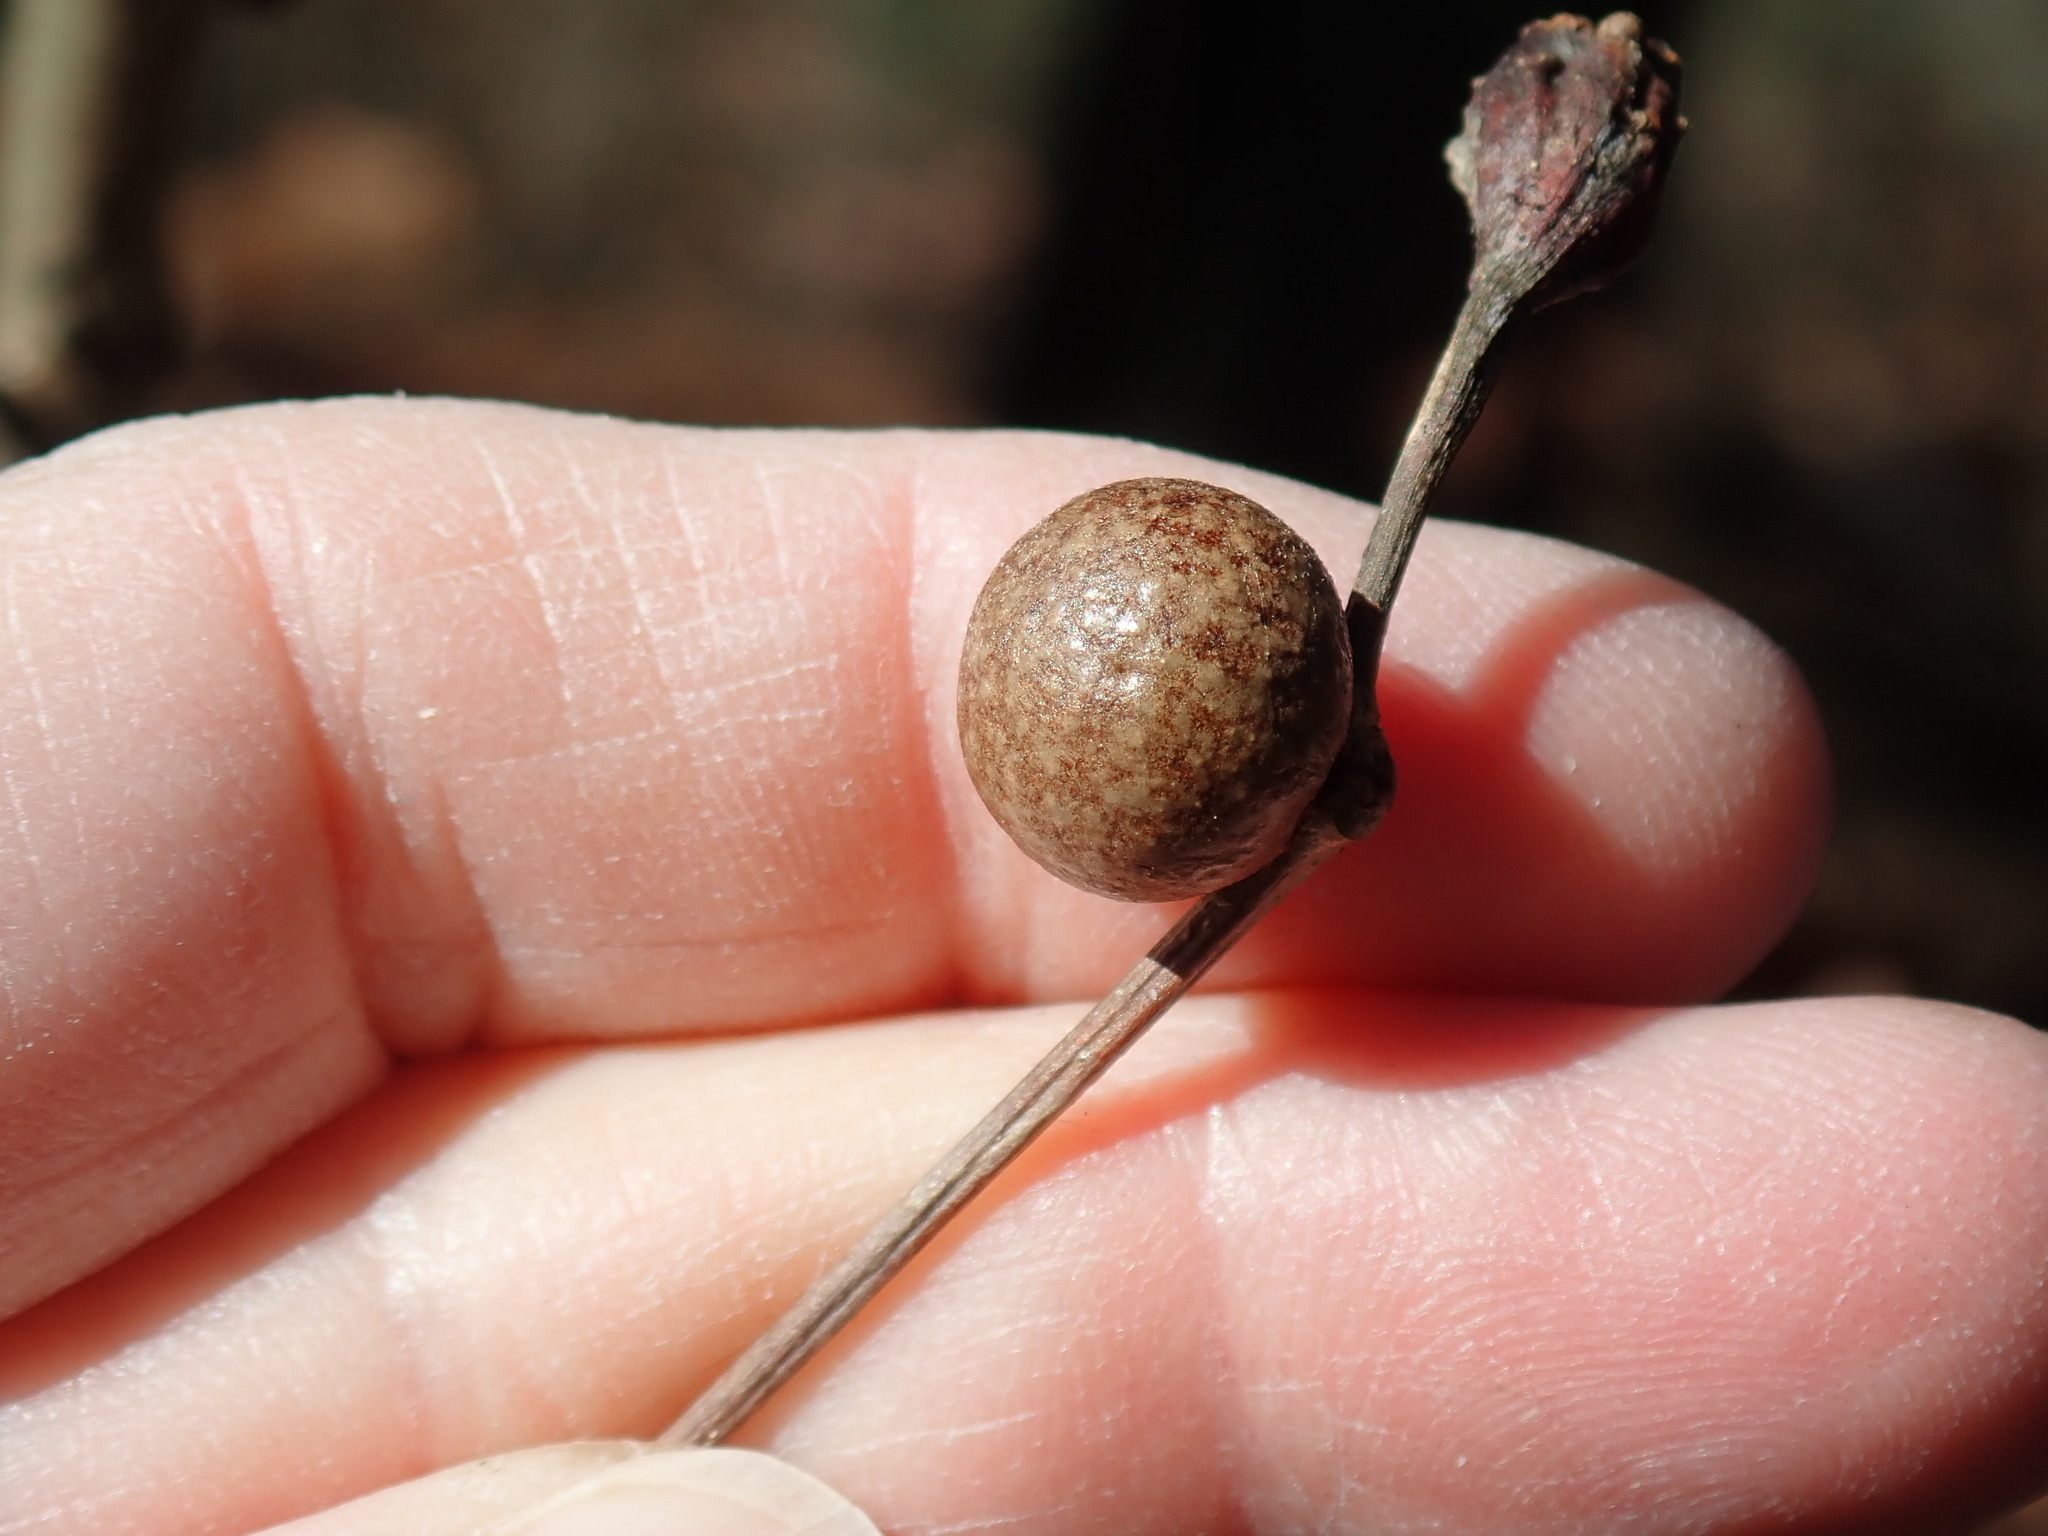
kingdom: Animalia
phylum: Arthropoda
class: Insecta
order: Hymenoptera
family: Cynipidae
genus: Disholcaspis
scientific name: Disholcaspis quercusglobulus
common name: Round bullet gall wasp
